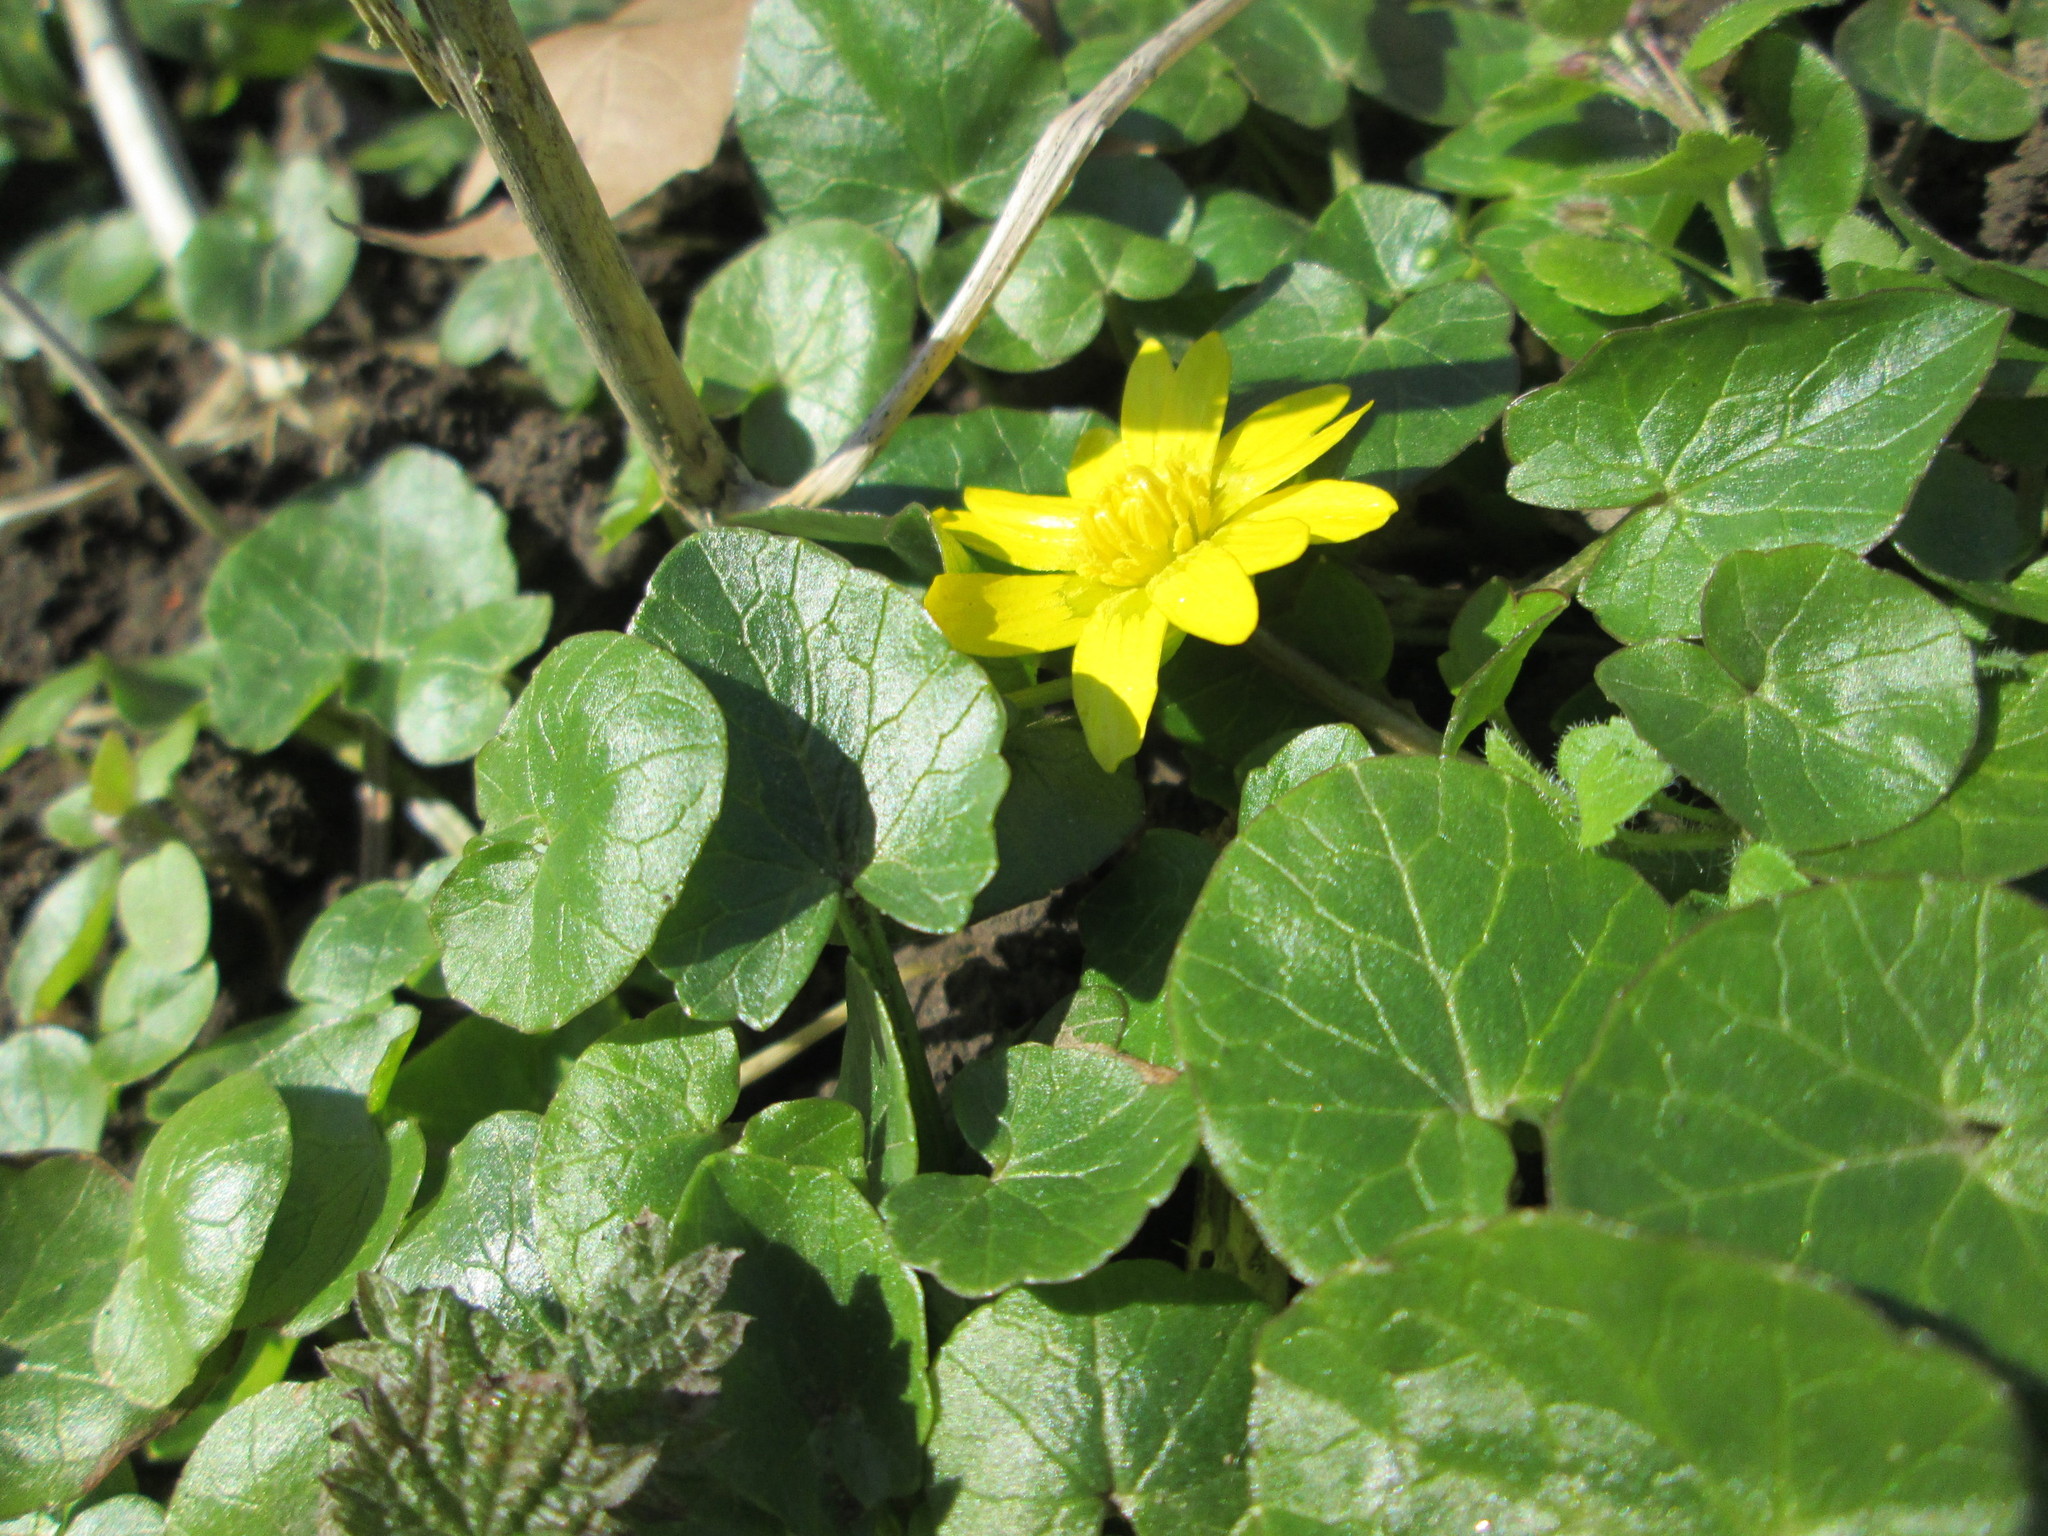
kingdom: Plantae
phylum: Tracheophyta
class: Magnoliopsida
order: Ranunculales
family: Ranunculaceae
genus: Ficaria
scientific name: Ficaria verna
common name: Lesser celandine
